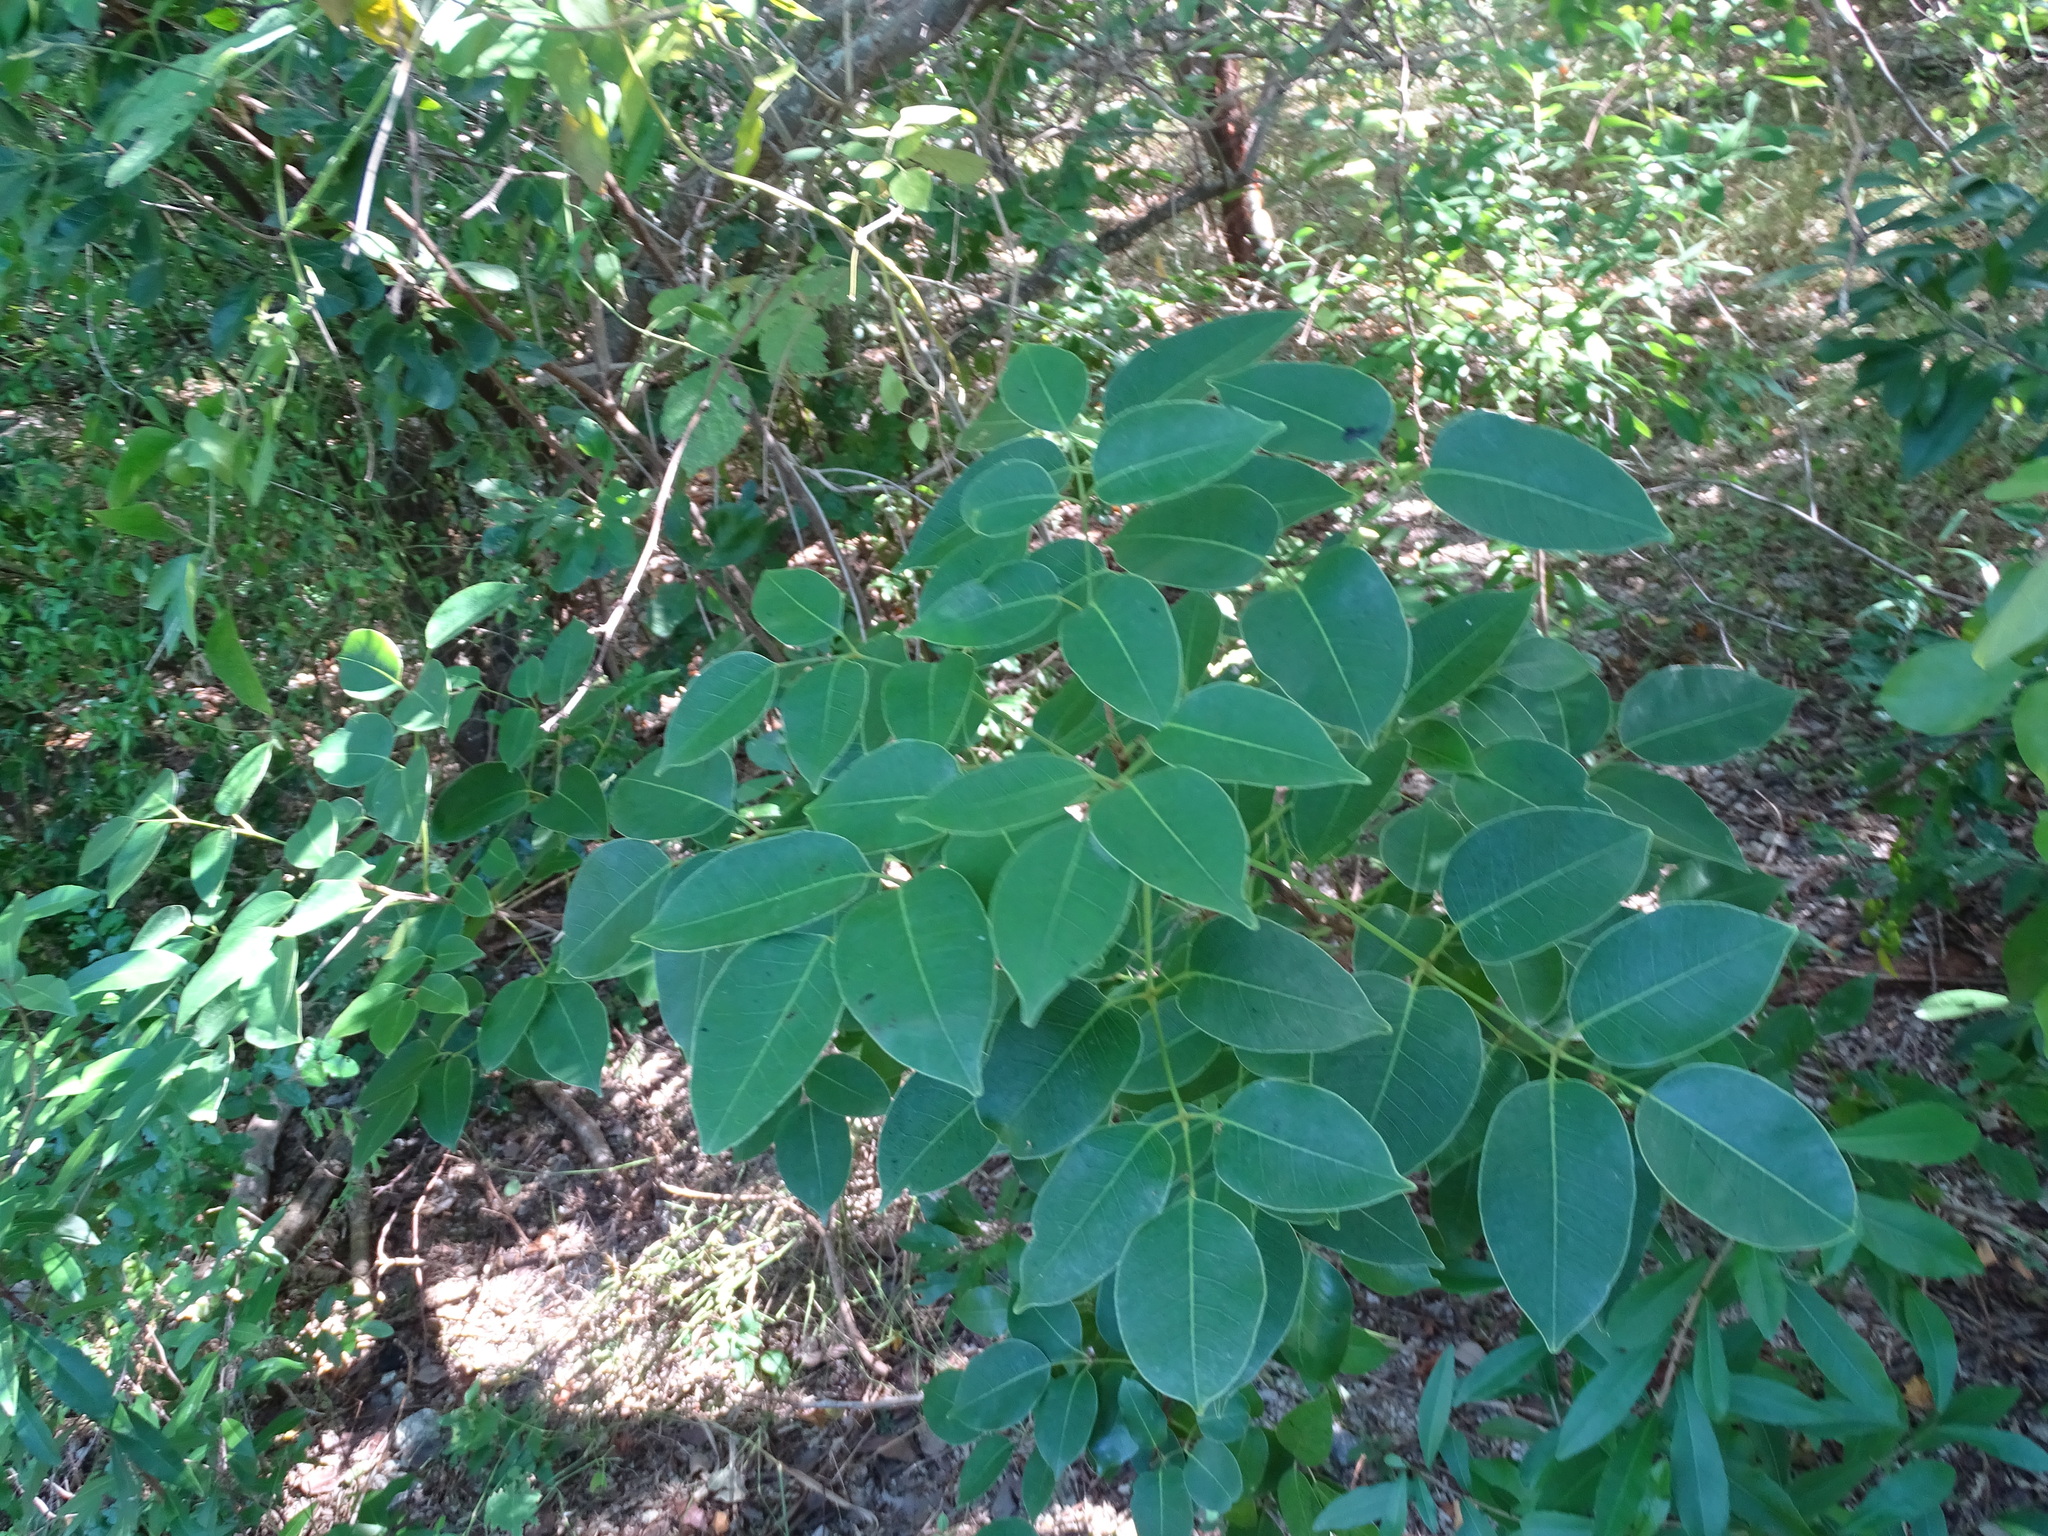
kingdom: Plantae
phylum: Tracheophyta
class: Magnoliopsida
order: Sapindales
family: Anacardiaceae
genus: Metopium
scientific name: Metopium toxiferum
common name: Florida poisontree
